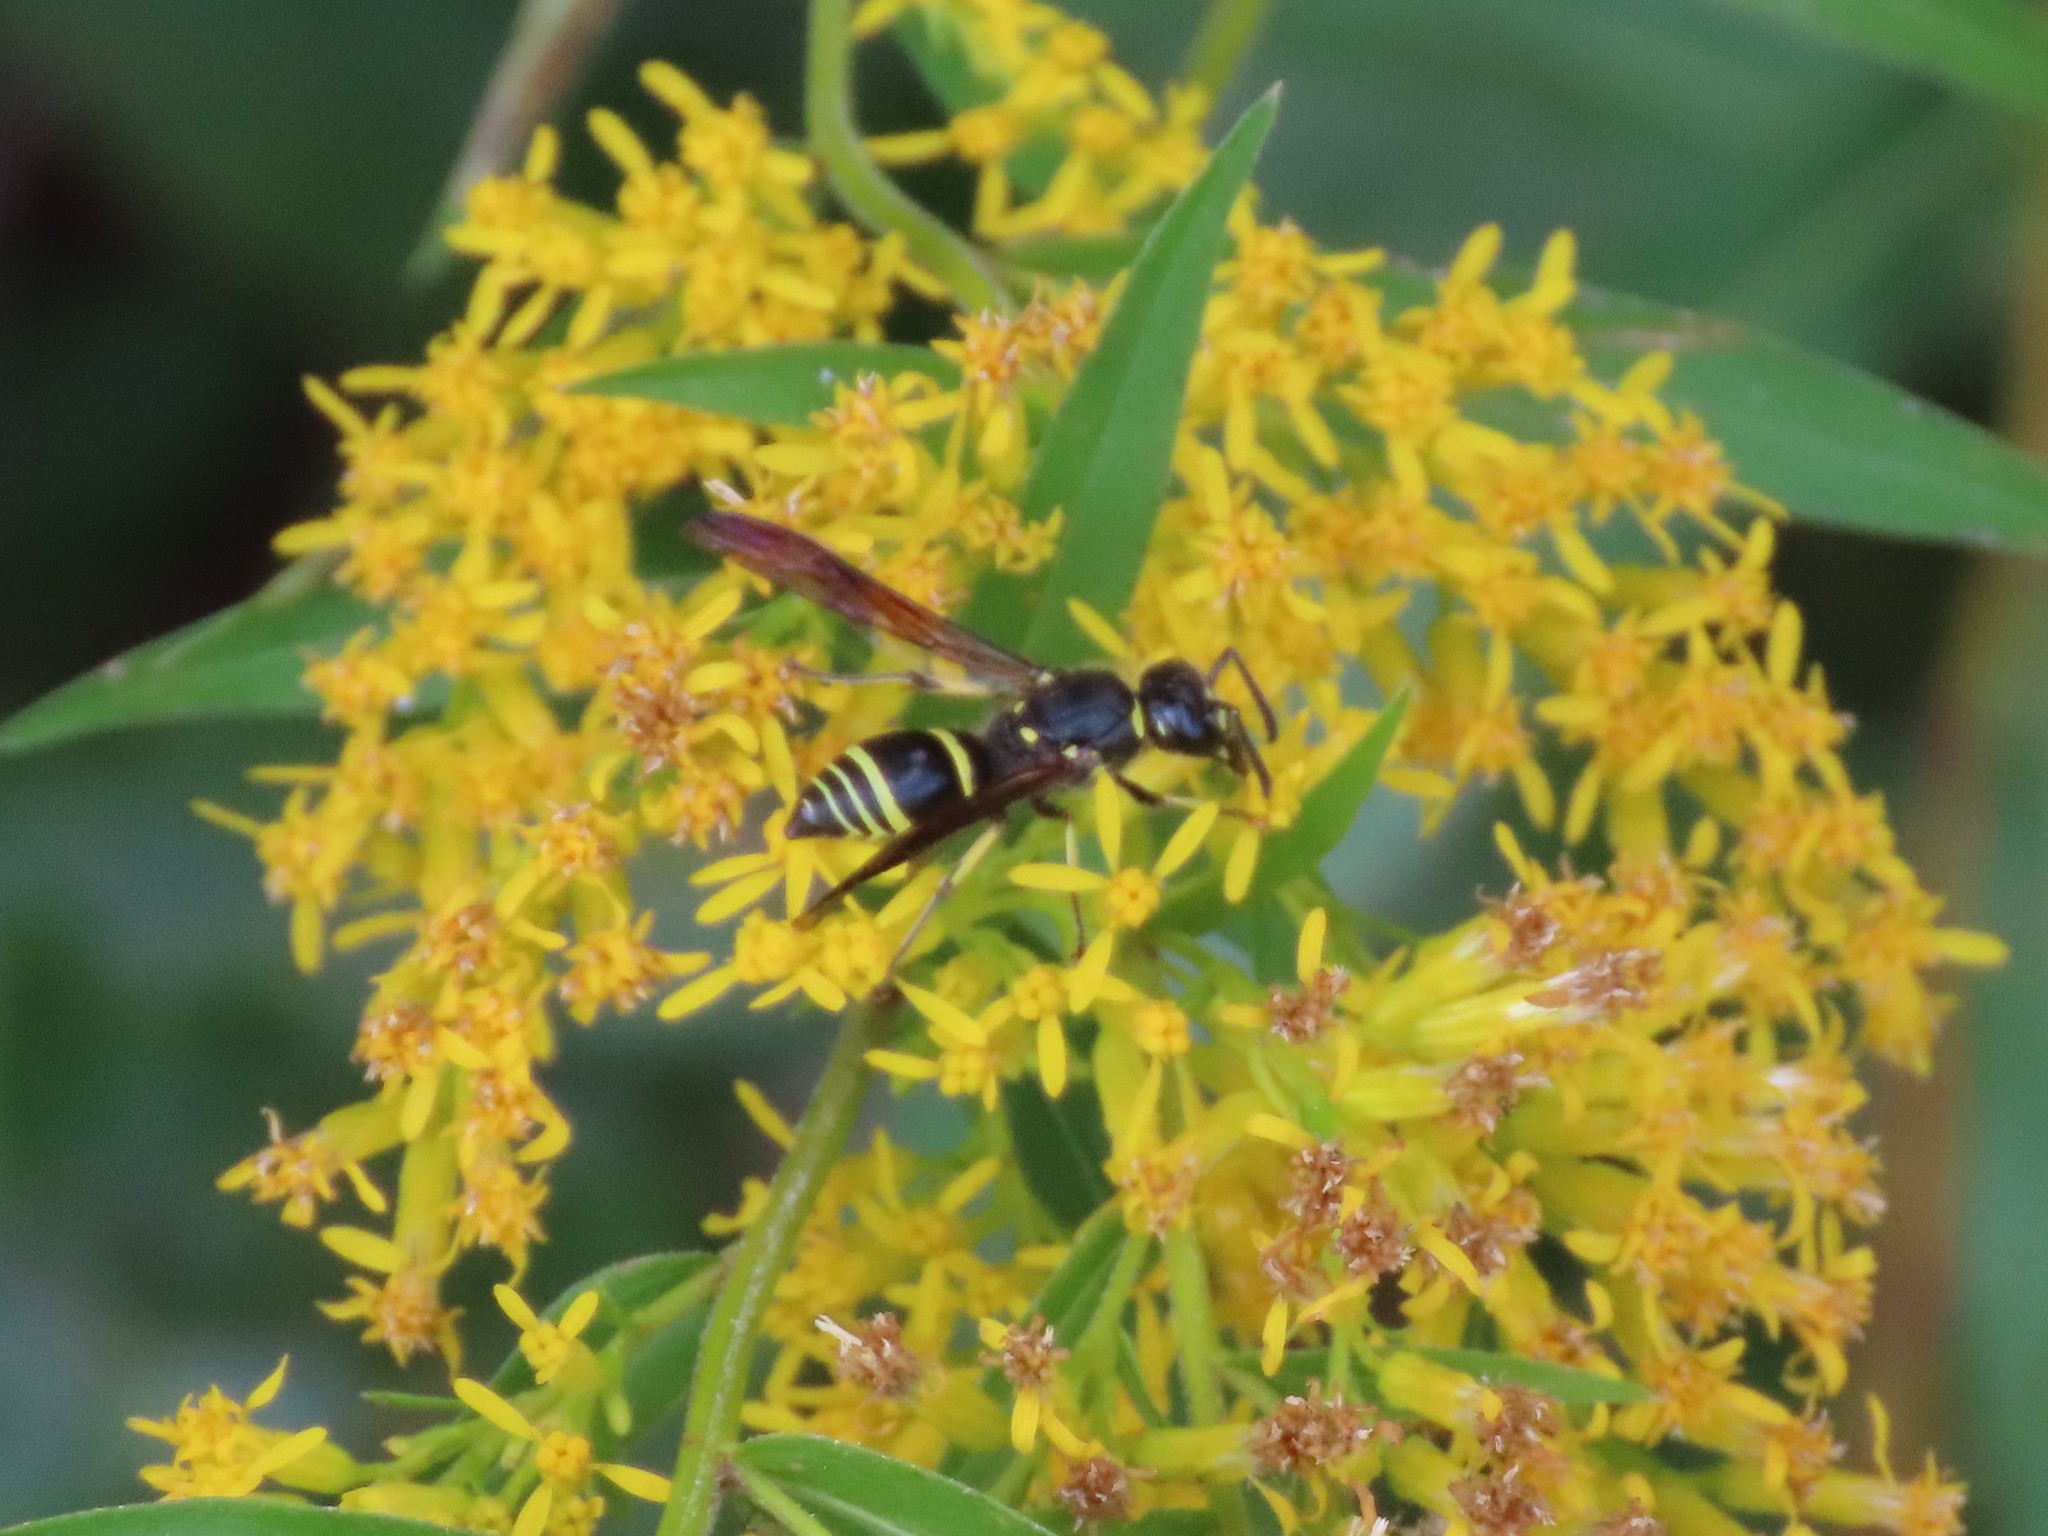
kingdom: Animalia
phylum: Arthropoda
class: Insecta
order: Hymenoptera
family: Vespidae
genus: Ancistrocerus
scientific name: Ancistrocerus
